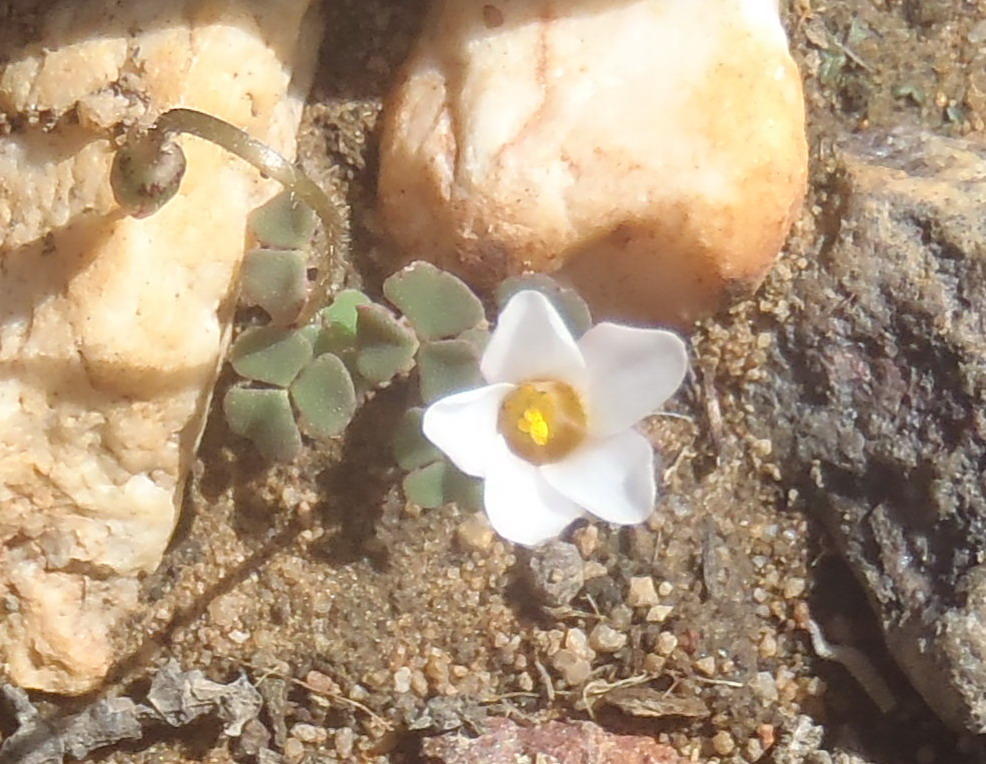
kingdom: Plantae
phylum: Tracheophyta
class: Magnoliopsida
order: Oxalidales
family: Oxalidaceae
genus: Oxalis
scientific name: Oxalis punctata
